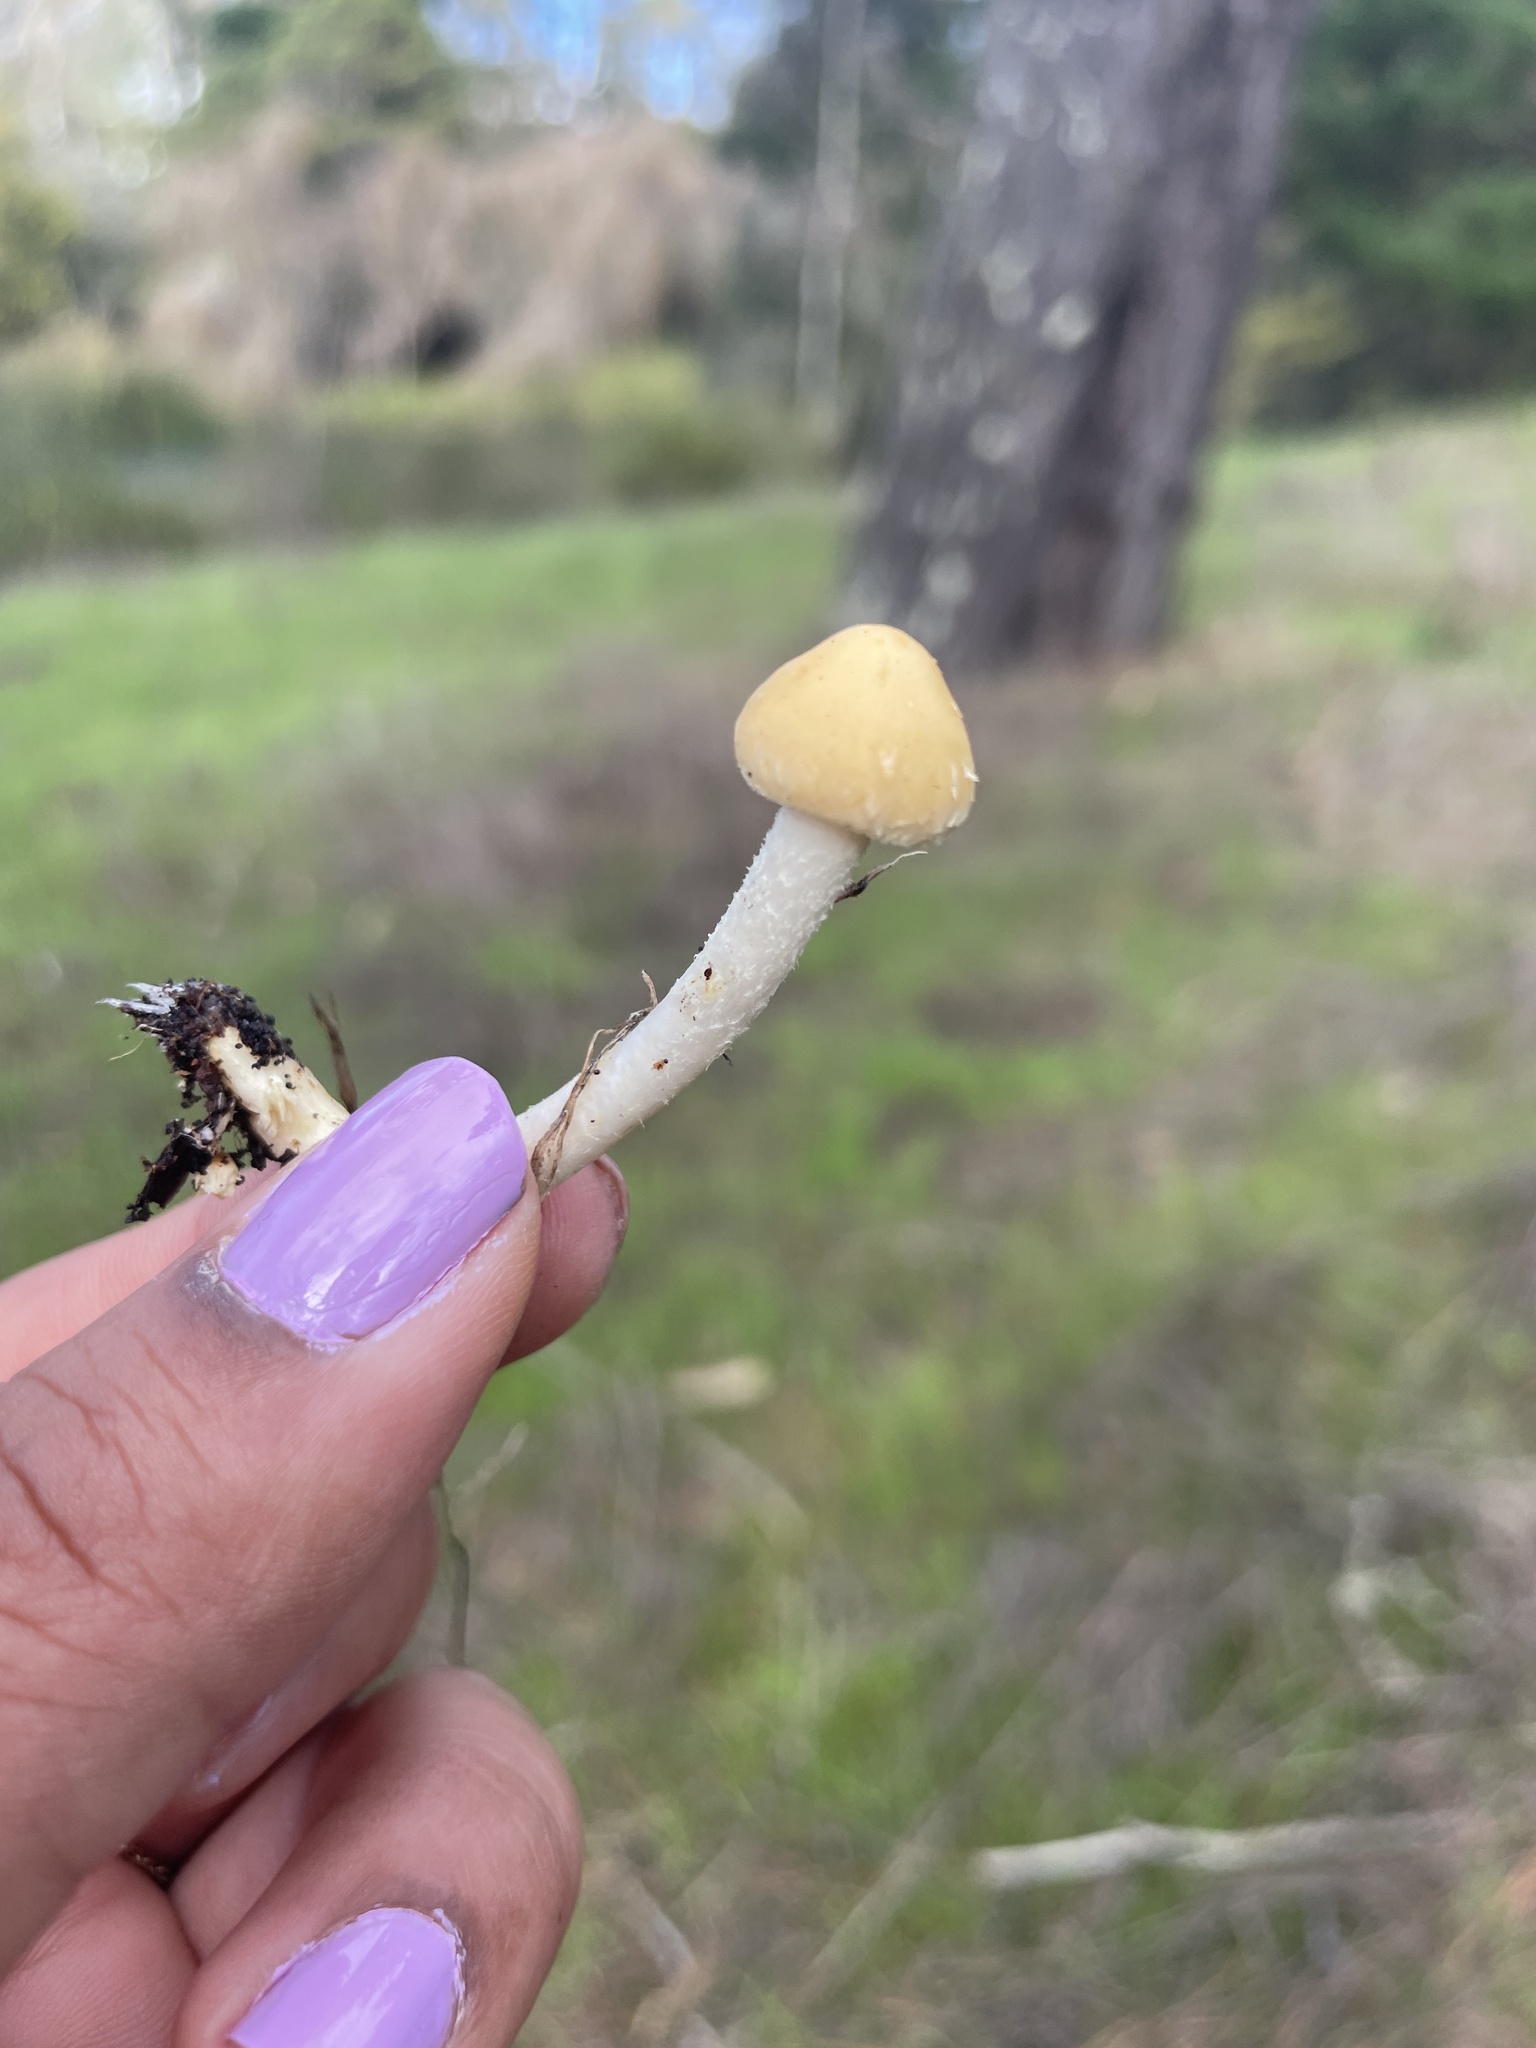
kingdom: Fungi
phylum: Basidiomycota
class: Agaricomycetes
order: Agaricales
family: Strophariaceae
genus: Leratiomyces
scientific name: Leratiomyces percevalii
